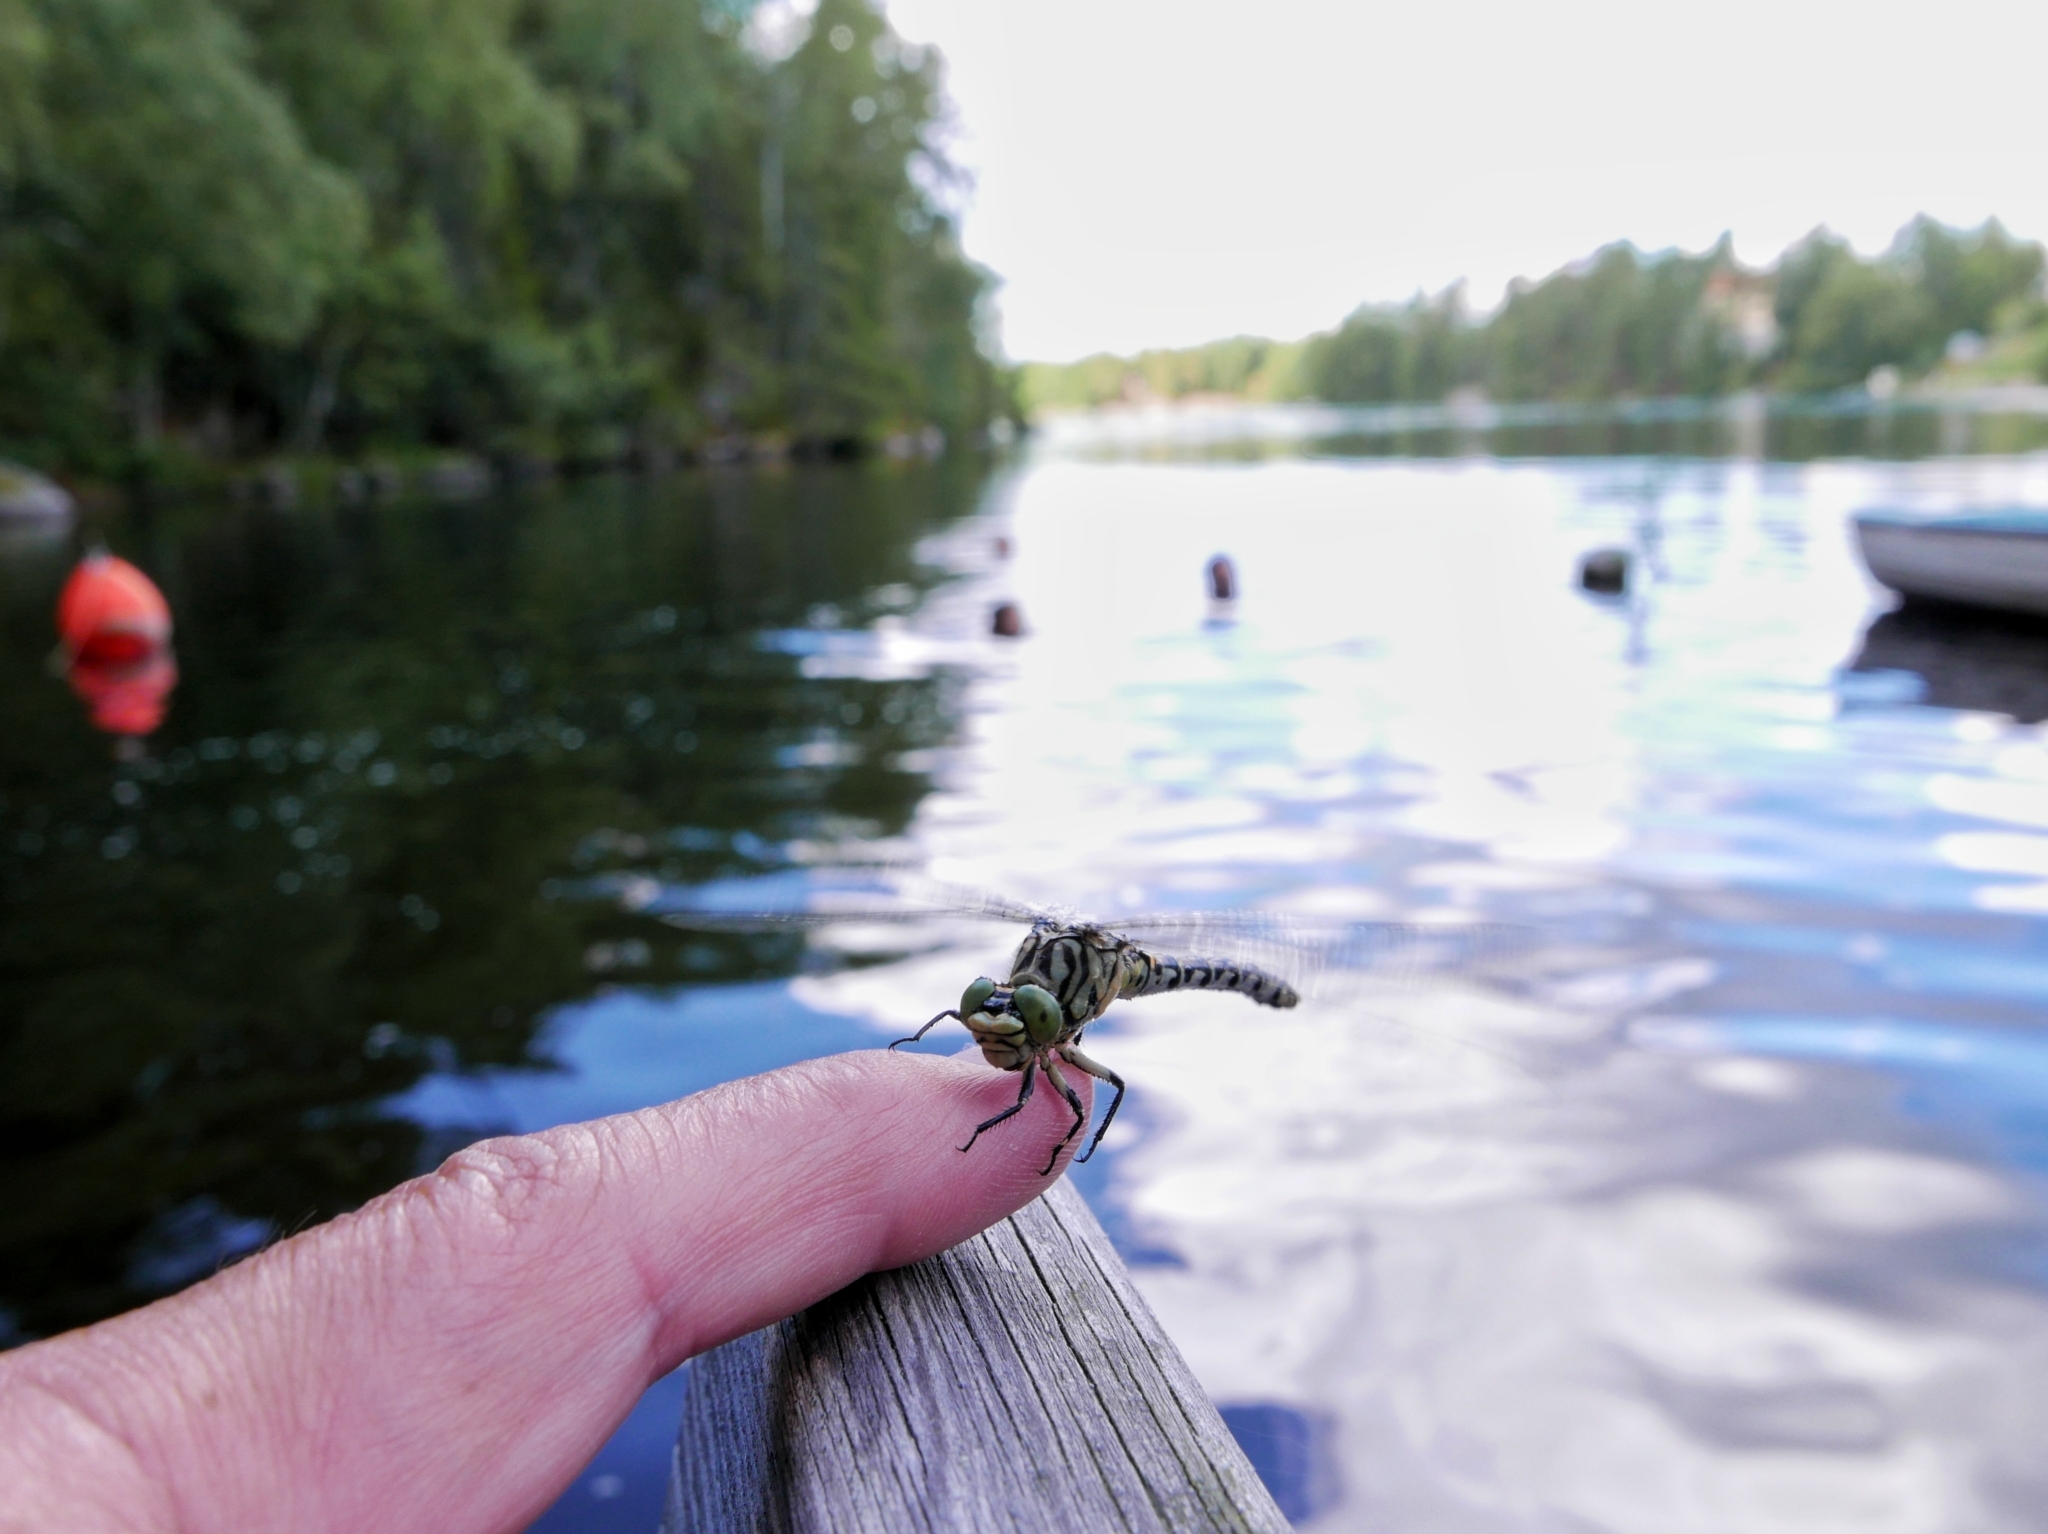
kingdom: Animalia
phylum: Arthropoda
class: Insecta
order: Odonata
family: Gomphidae
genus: Onychogomphus
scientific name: Onychogomphus forcipatus
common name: Small pincertail
